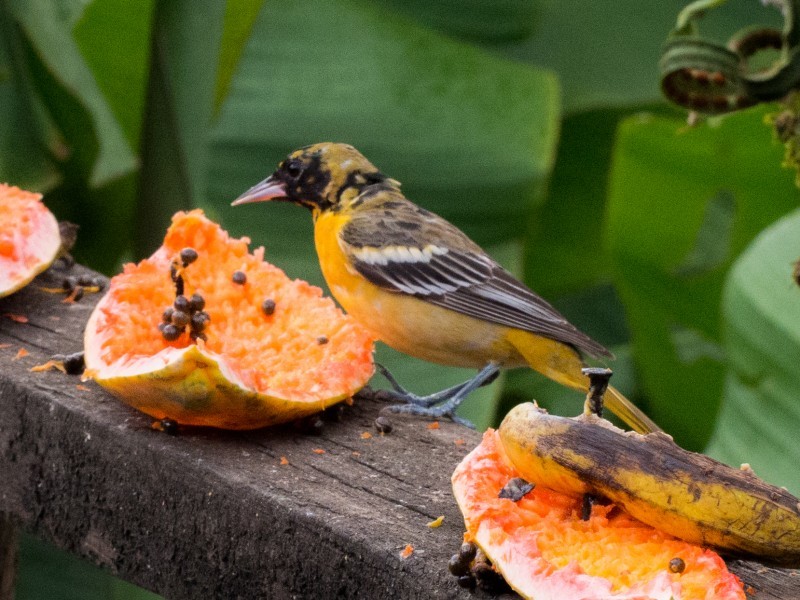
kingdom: Animalia
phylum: Chordata
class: Aves
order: Passeriformes
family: Icteridae
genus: Icterus
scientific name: Icterus galbula
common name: Baltimore oriole
